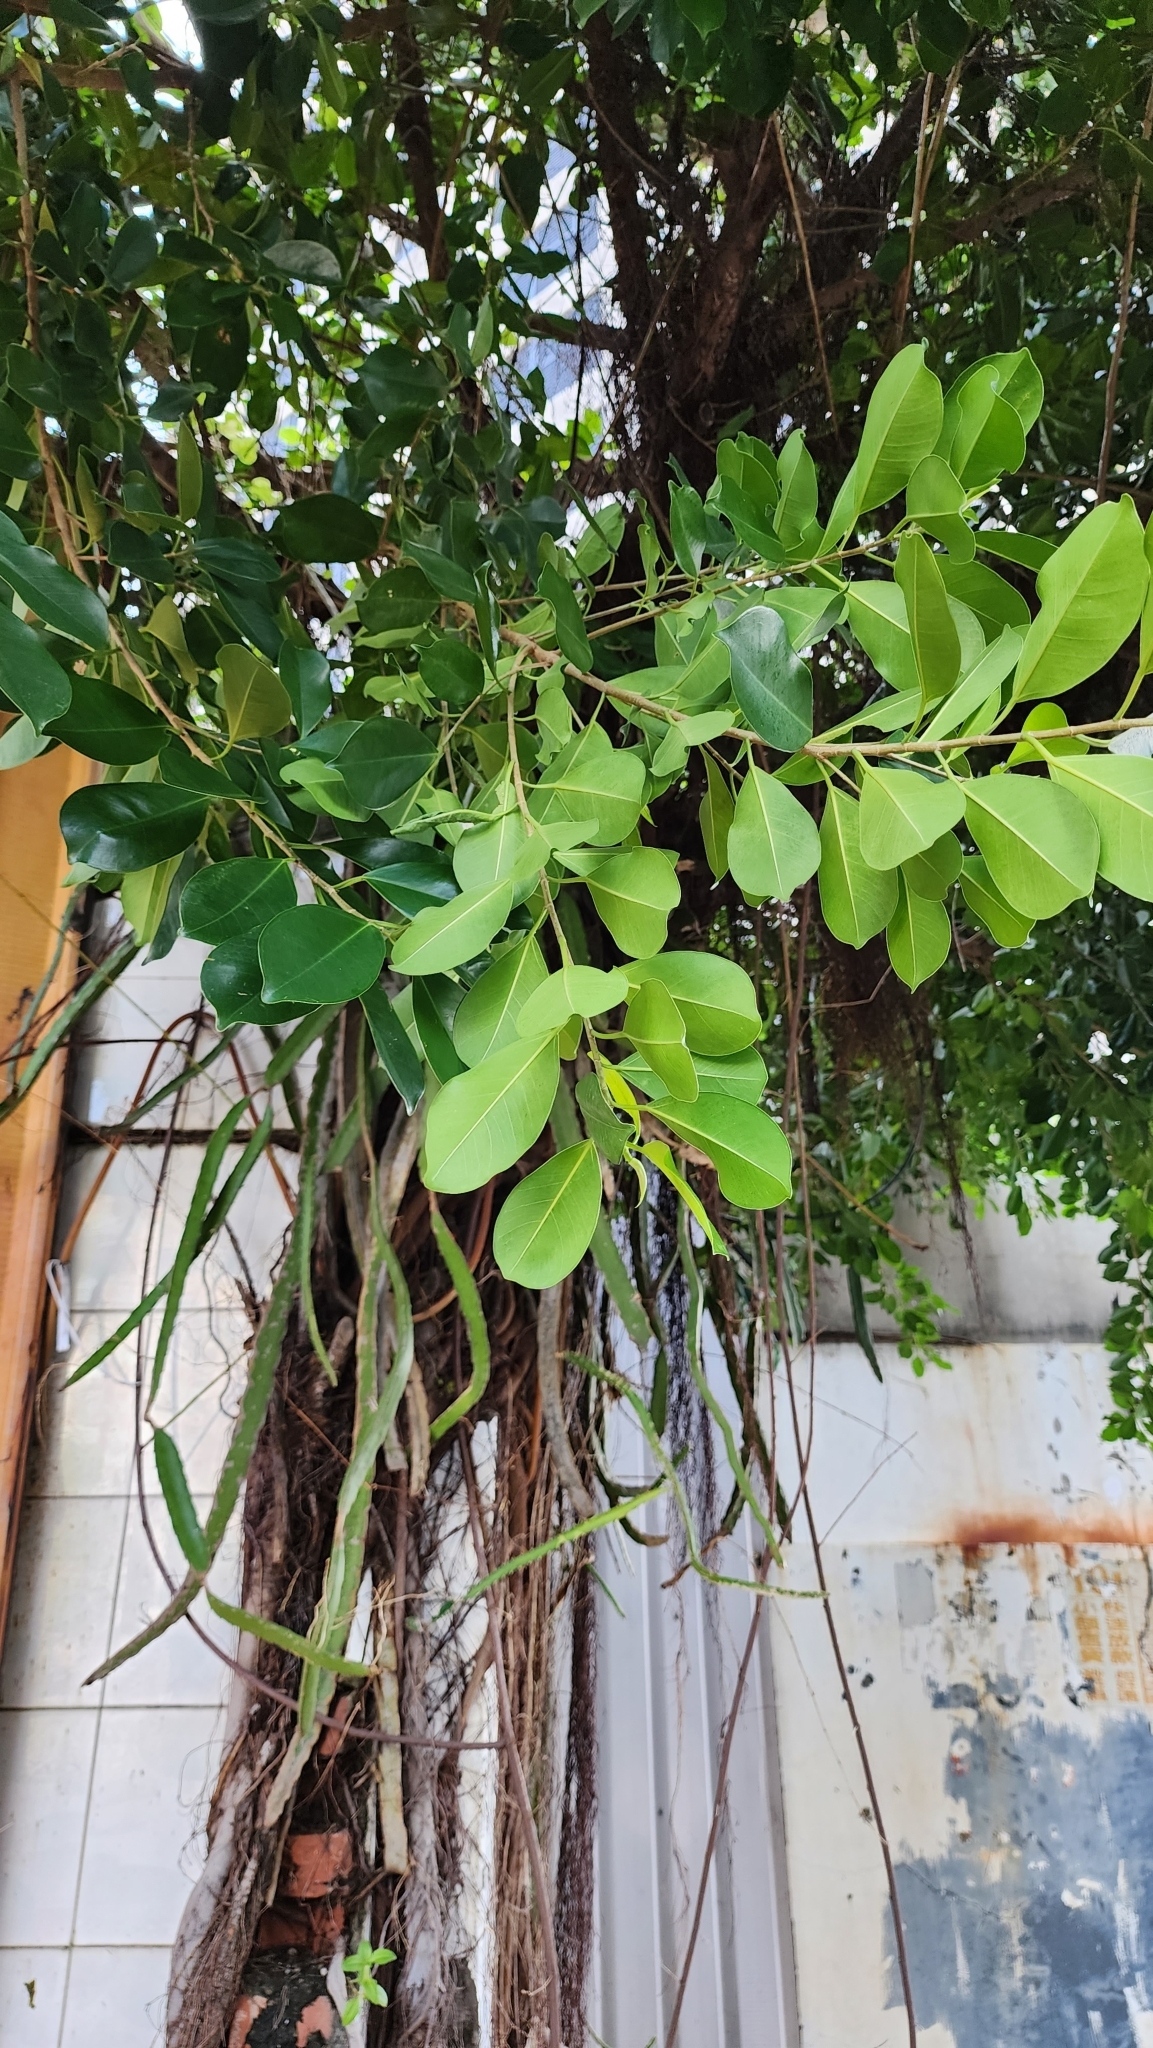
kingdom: Plantae
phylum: Tracheophyta
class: Magnoliopsida
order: Rosales
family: Moraceae
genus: Ficus
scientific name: Ficus microcarpa
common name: Chinese banyan
